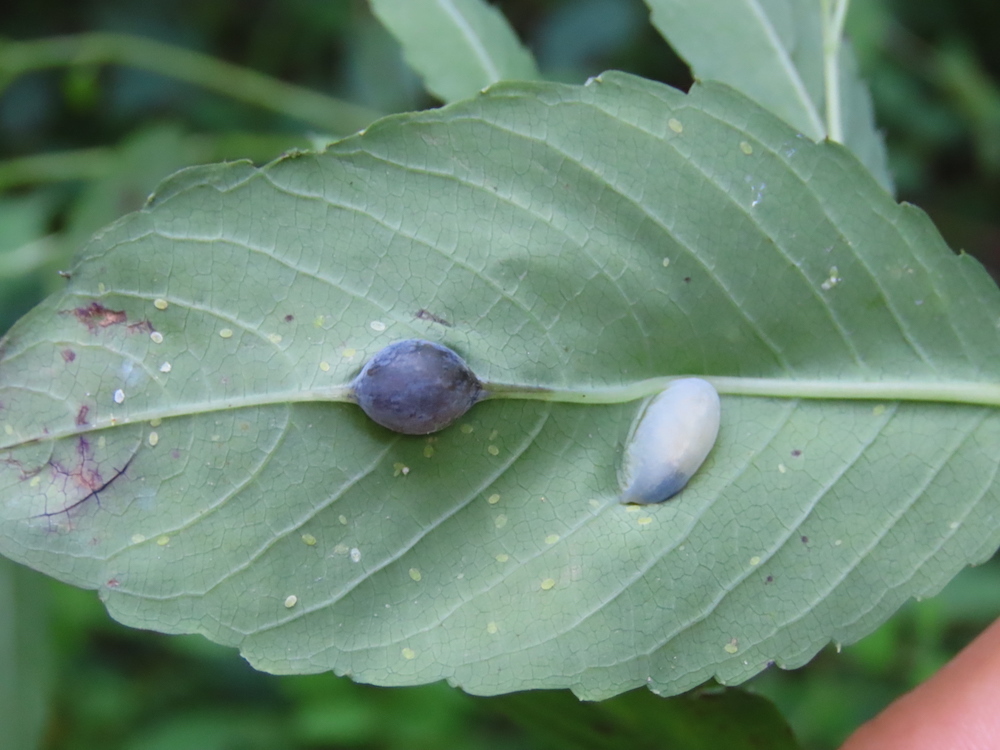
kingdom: Animalia
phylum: Arthropoda
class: Insecta
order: Diptera
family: Cecidomyiidae
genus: Neolasioptera
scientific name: Neolasioptera impatientifolia
